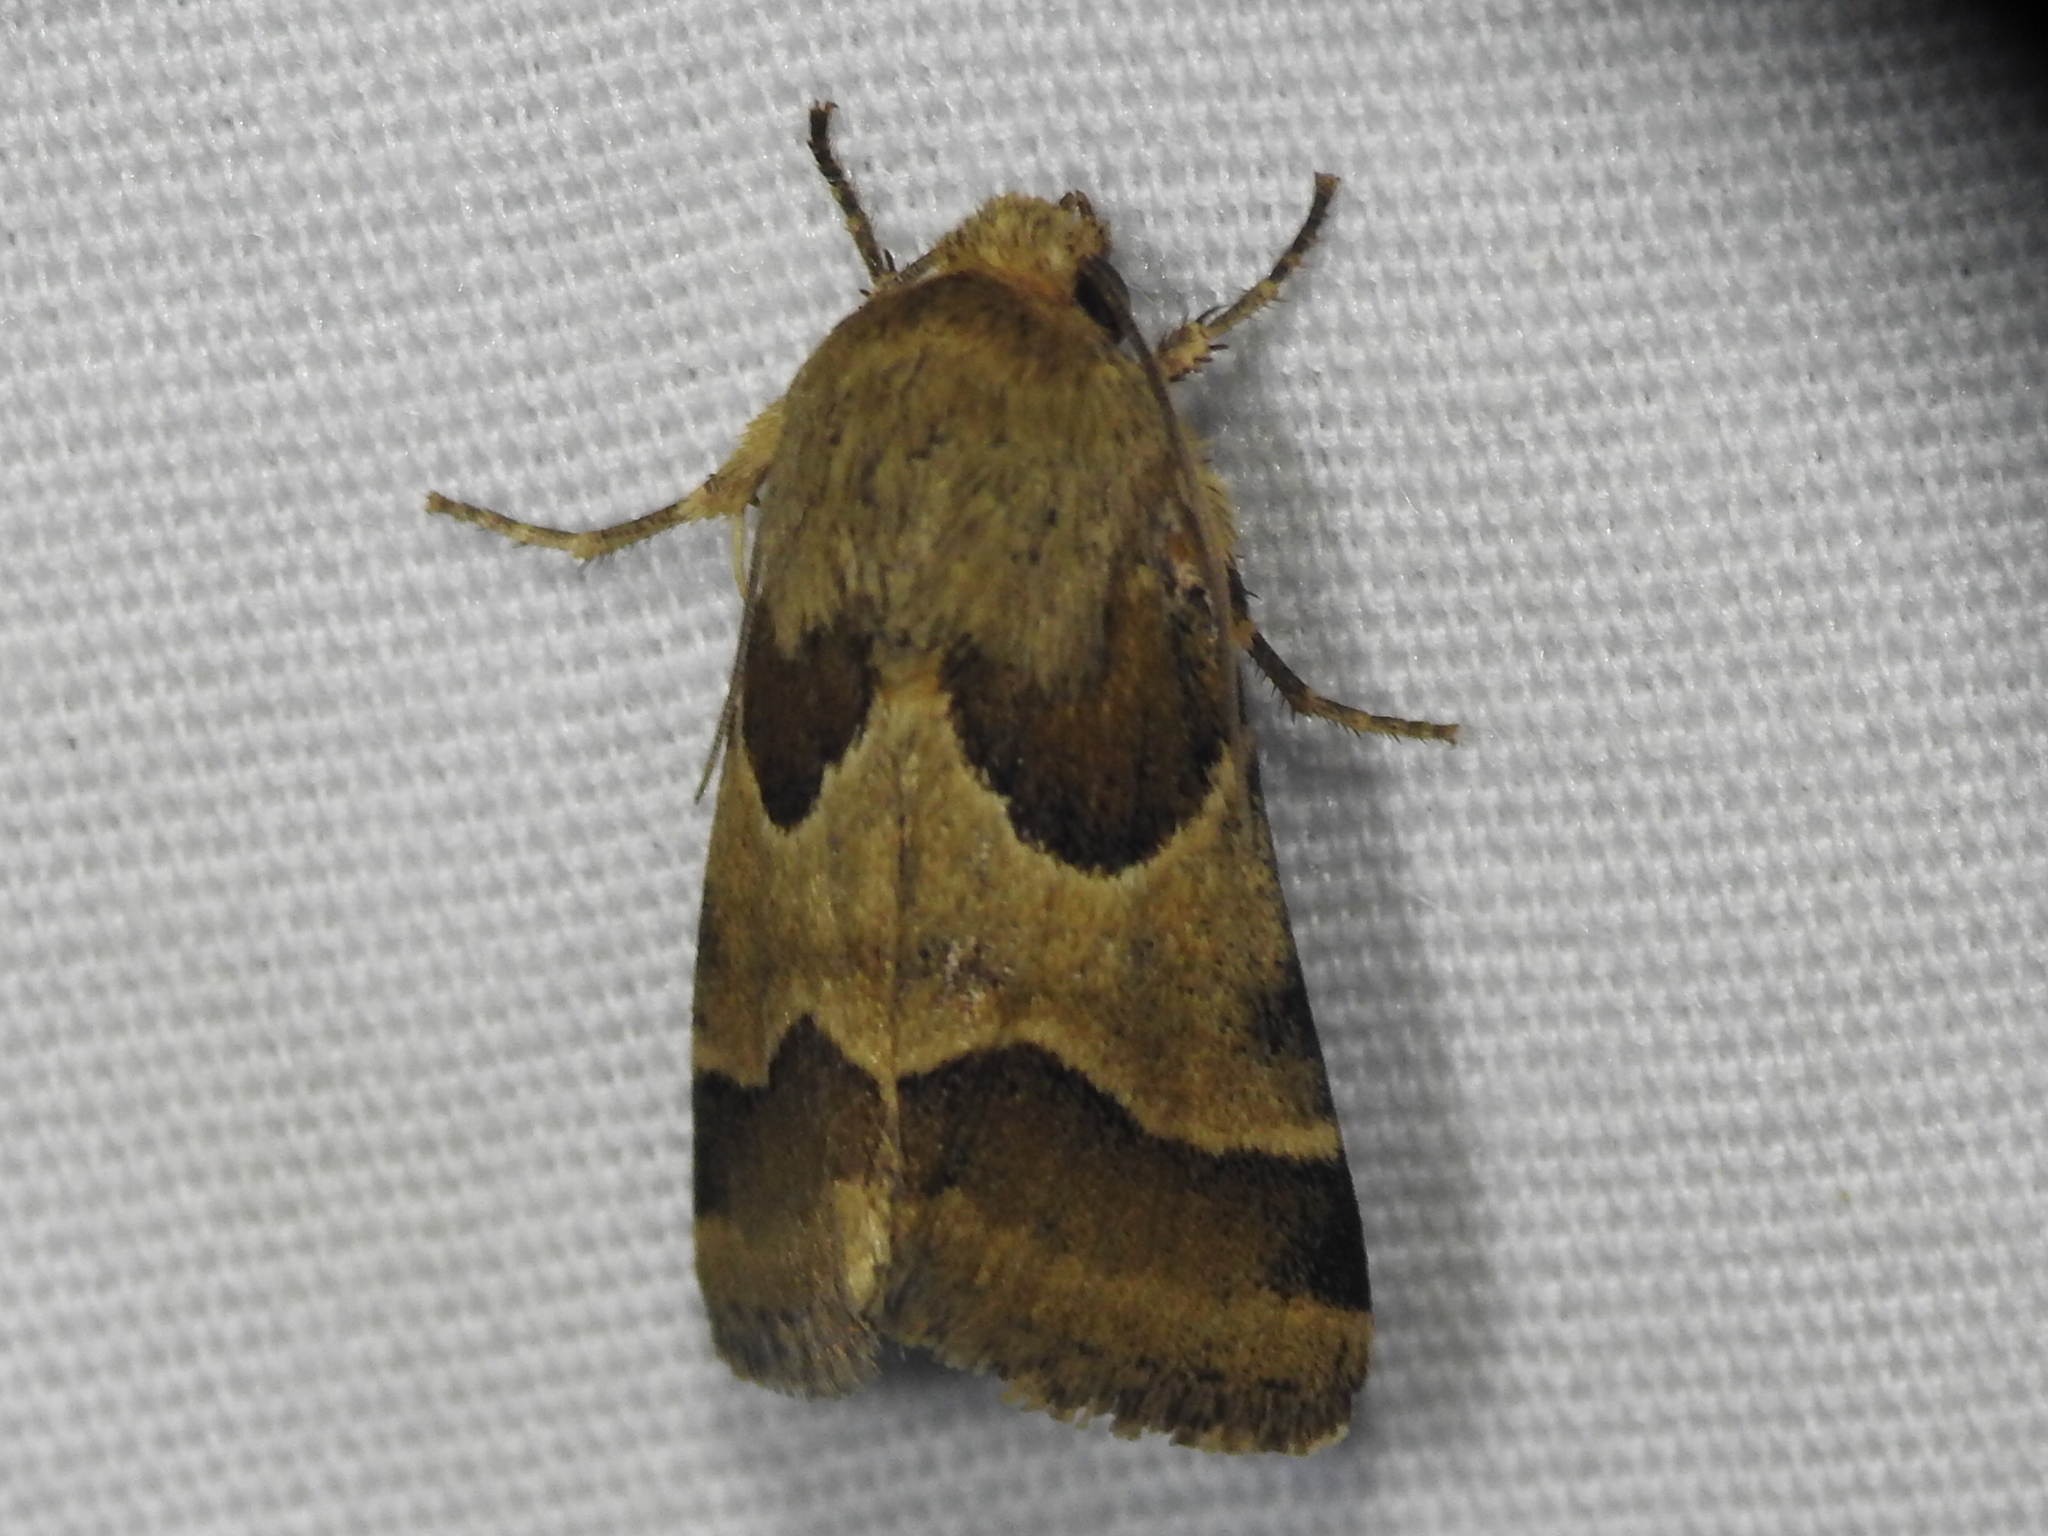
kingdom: Animalia
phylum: Arthropoda
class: Insecta
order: Lepidoptera
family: Noctuidae
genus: Schinia
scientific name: Schinia jaguarina
